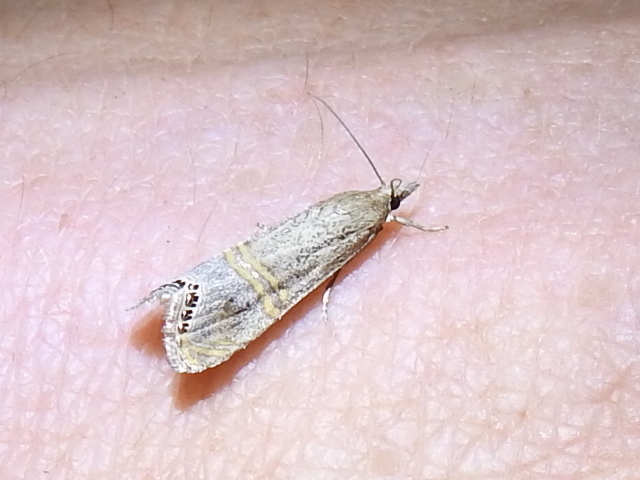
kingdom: Animalia
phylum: Arthropoda
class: Insecta
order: Lepidoptera
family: Crambidae
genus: Euchromius
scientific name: Euchromius ocellea
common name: Necklace veneer moth
